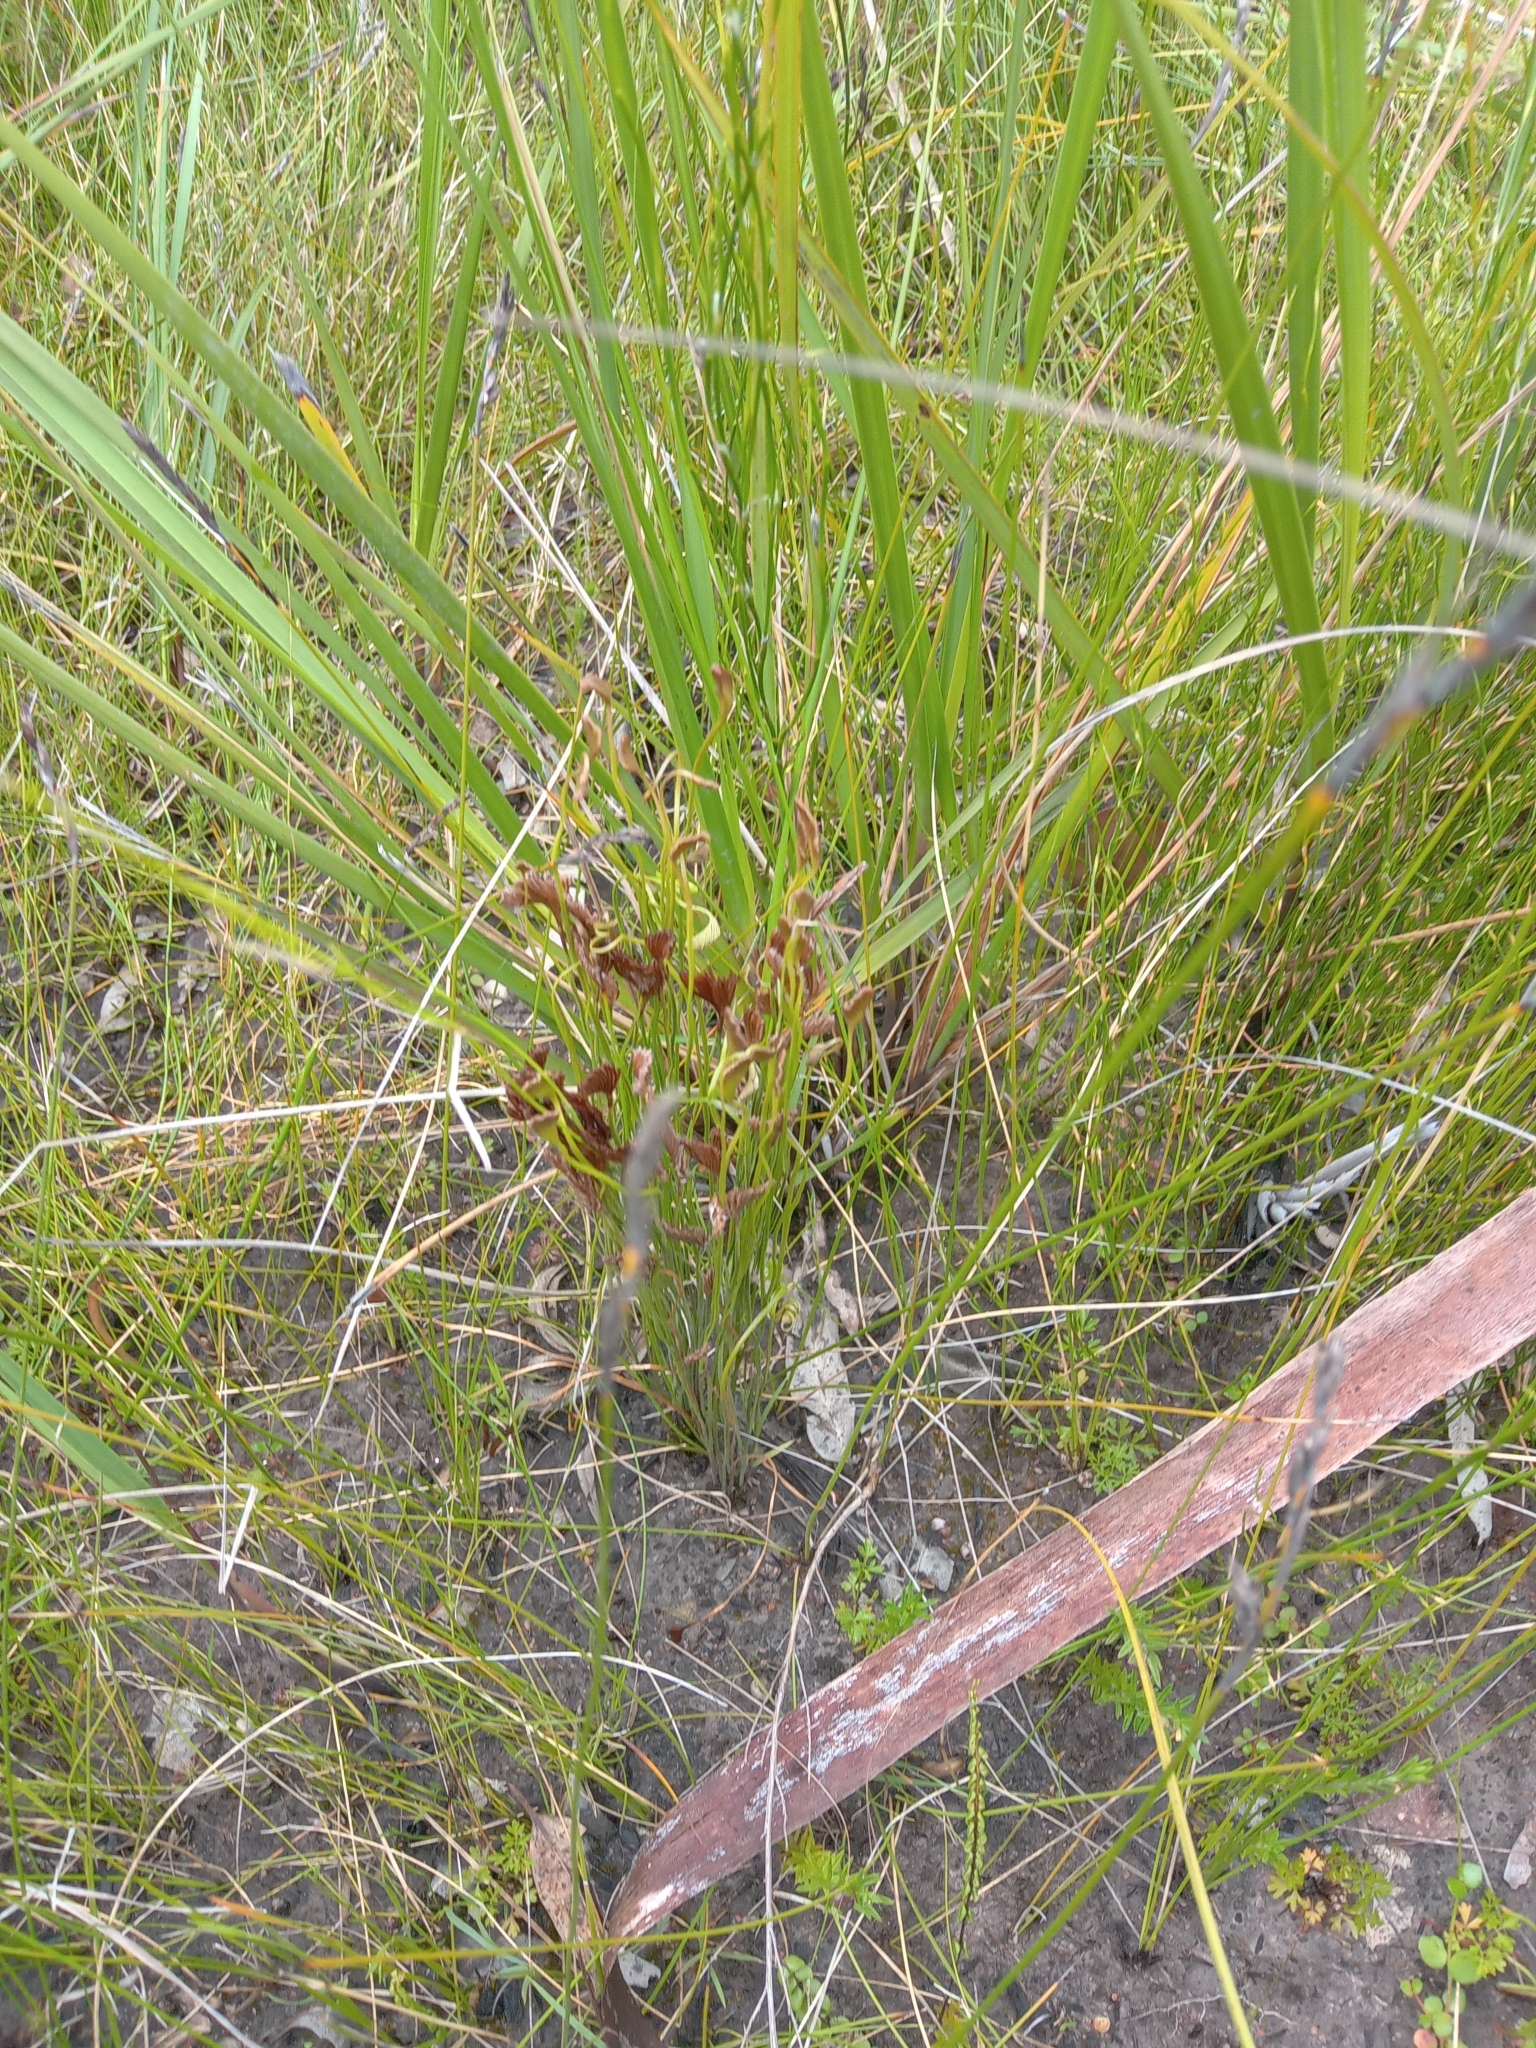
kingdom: Plantae
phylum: Tracheophyta
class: Polypodiopsida
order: Schizaeales
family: Schizaeaceae
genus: Schizaea
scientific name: Schizaea bifida
